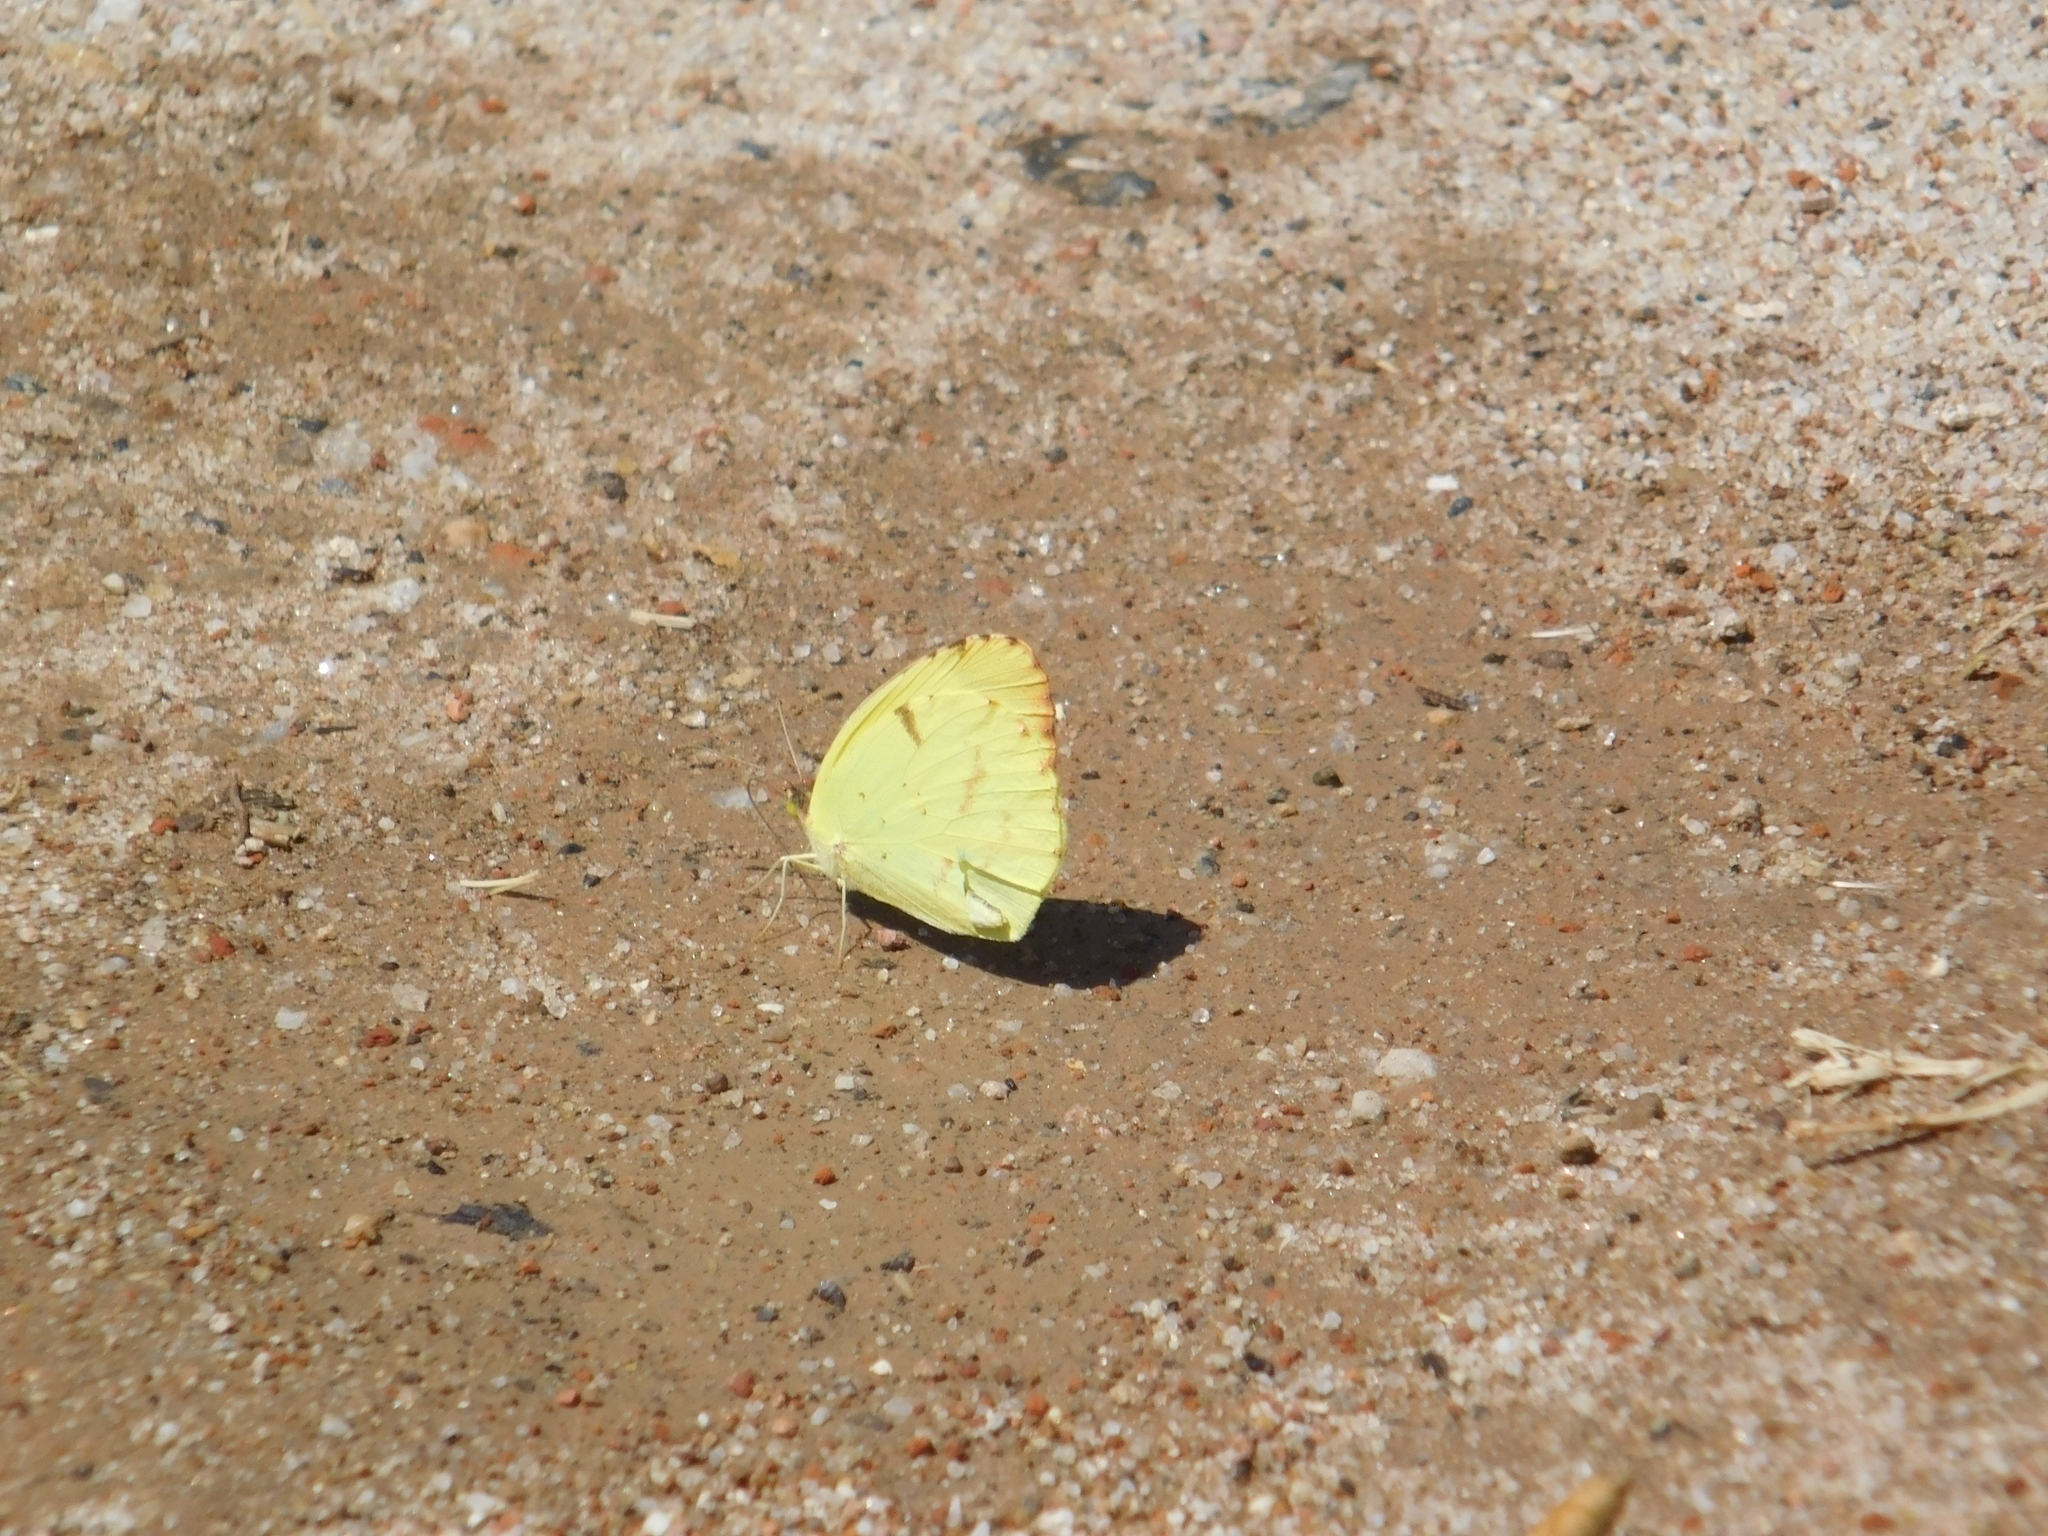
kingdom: Animalia
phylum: Arthropoda
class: Insecta
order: Lepidoptera
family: Pieridae
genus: Teriocolias
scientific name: Teriocolias
